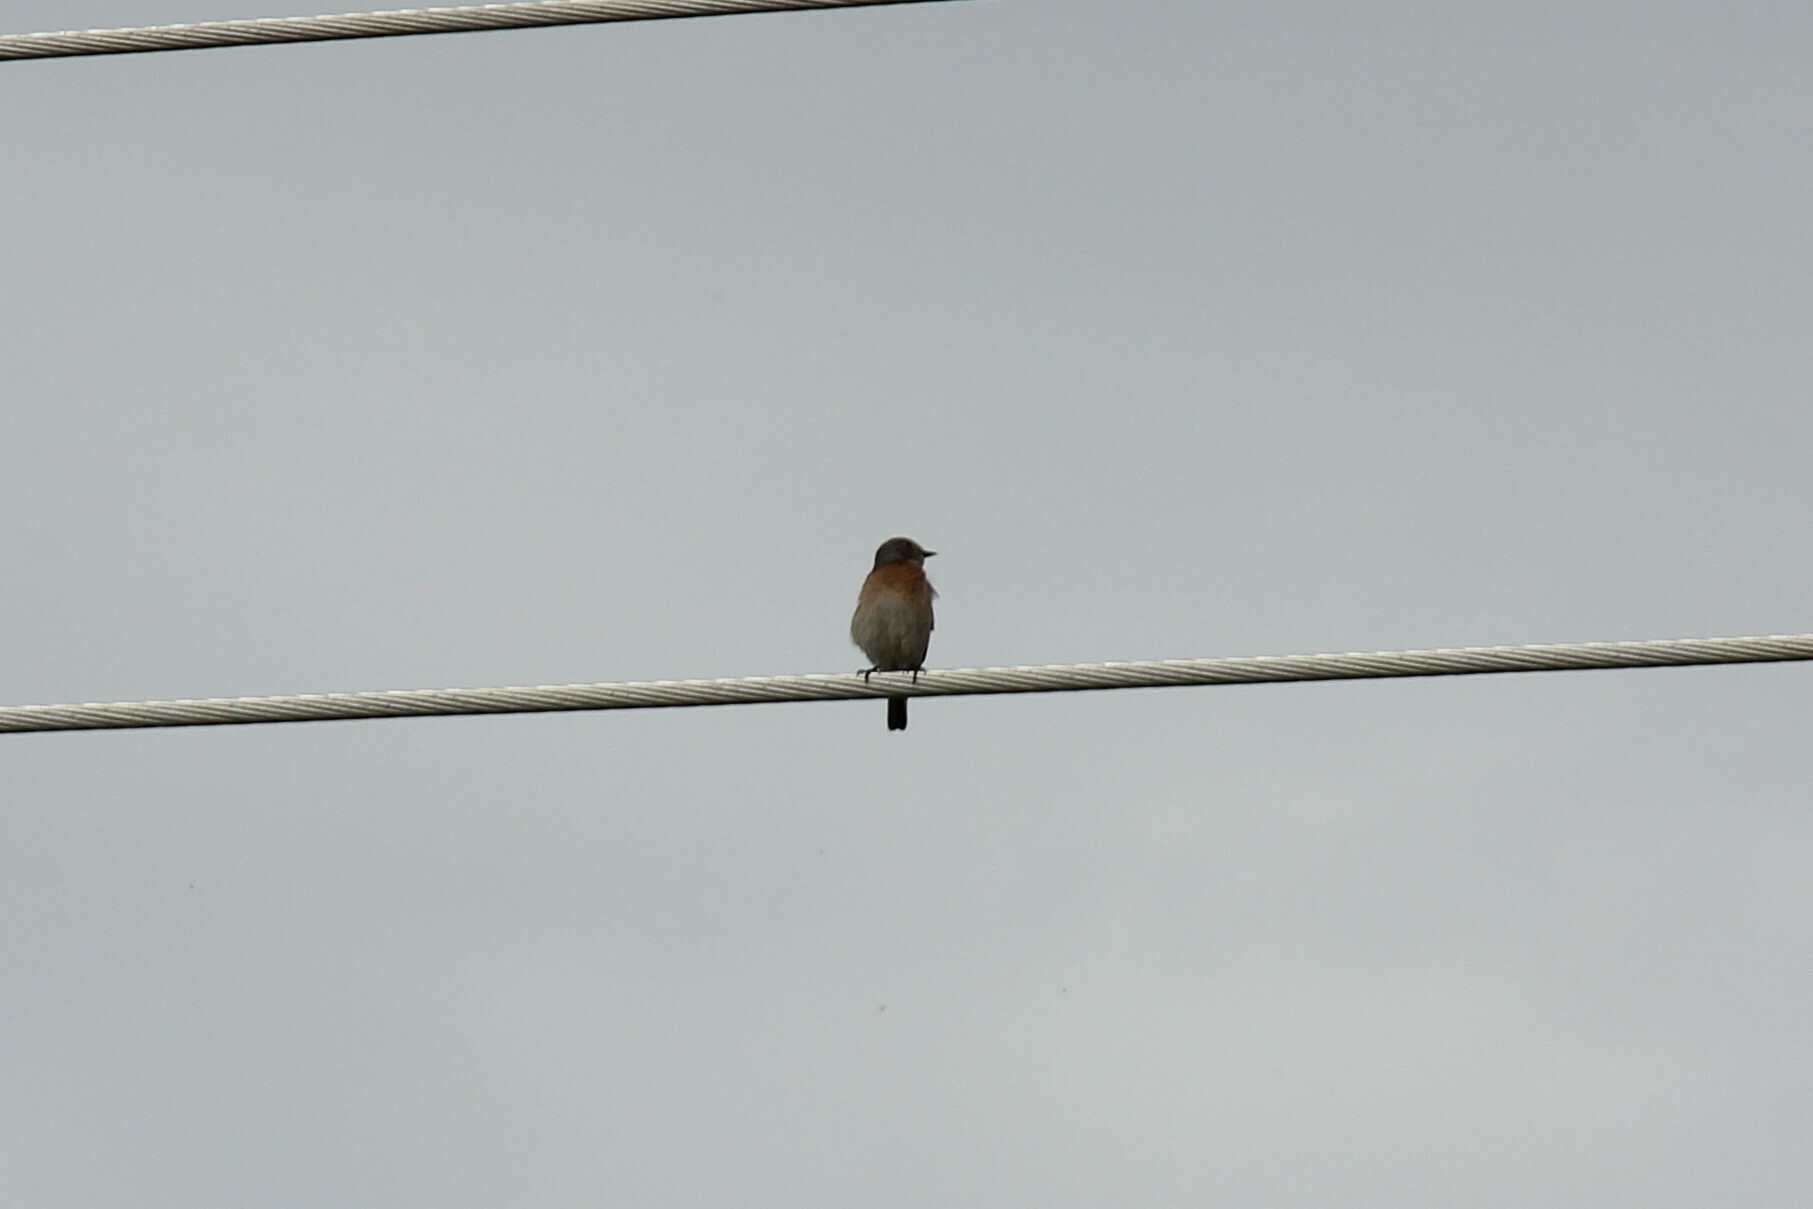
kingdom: Animalia
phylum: Chordata
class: Aves
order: Passeriformes
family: Turdidae
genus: Sialia
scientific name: Sialia mexicana
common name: Western bluebird
